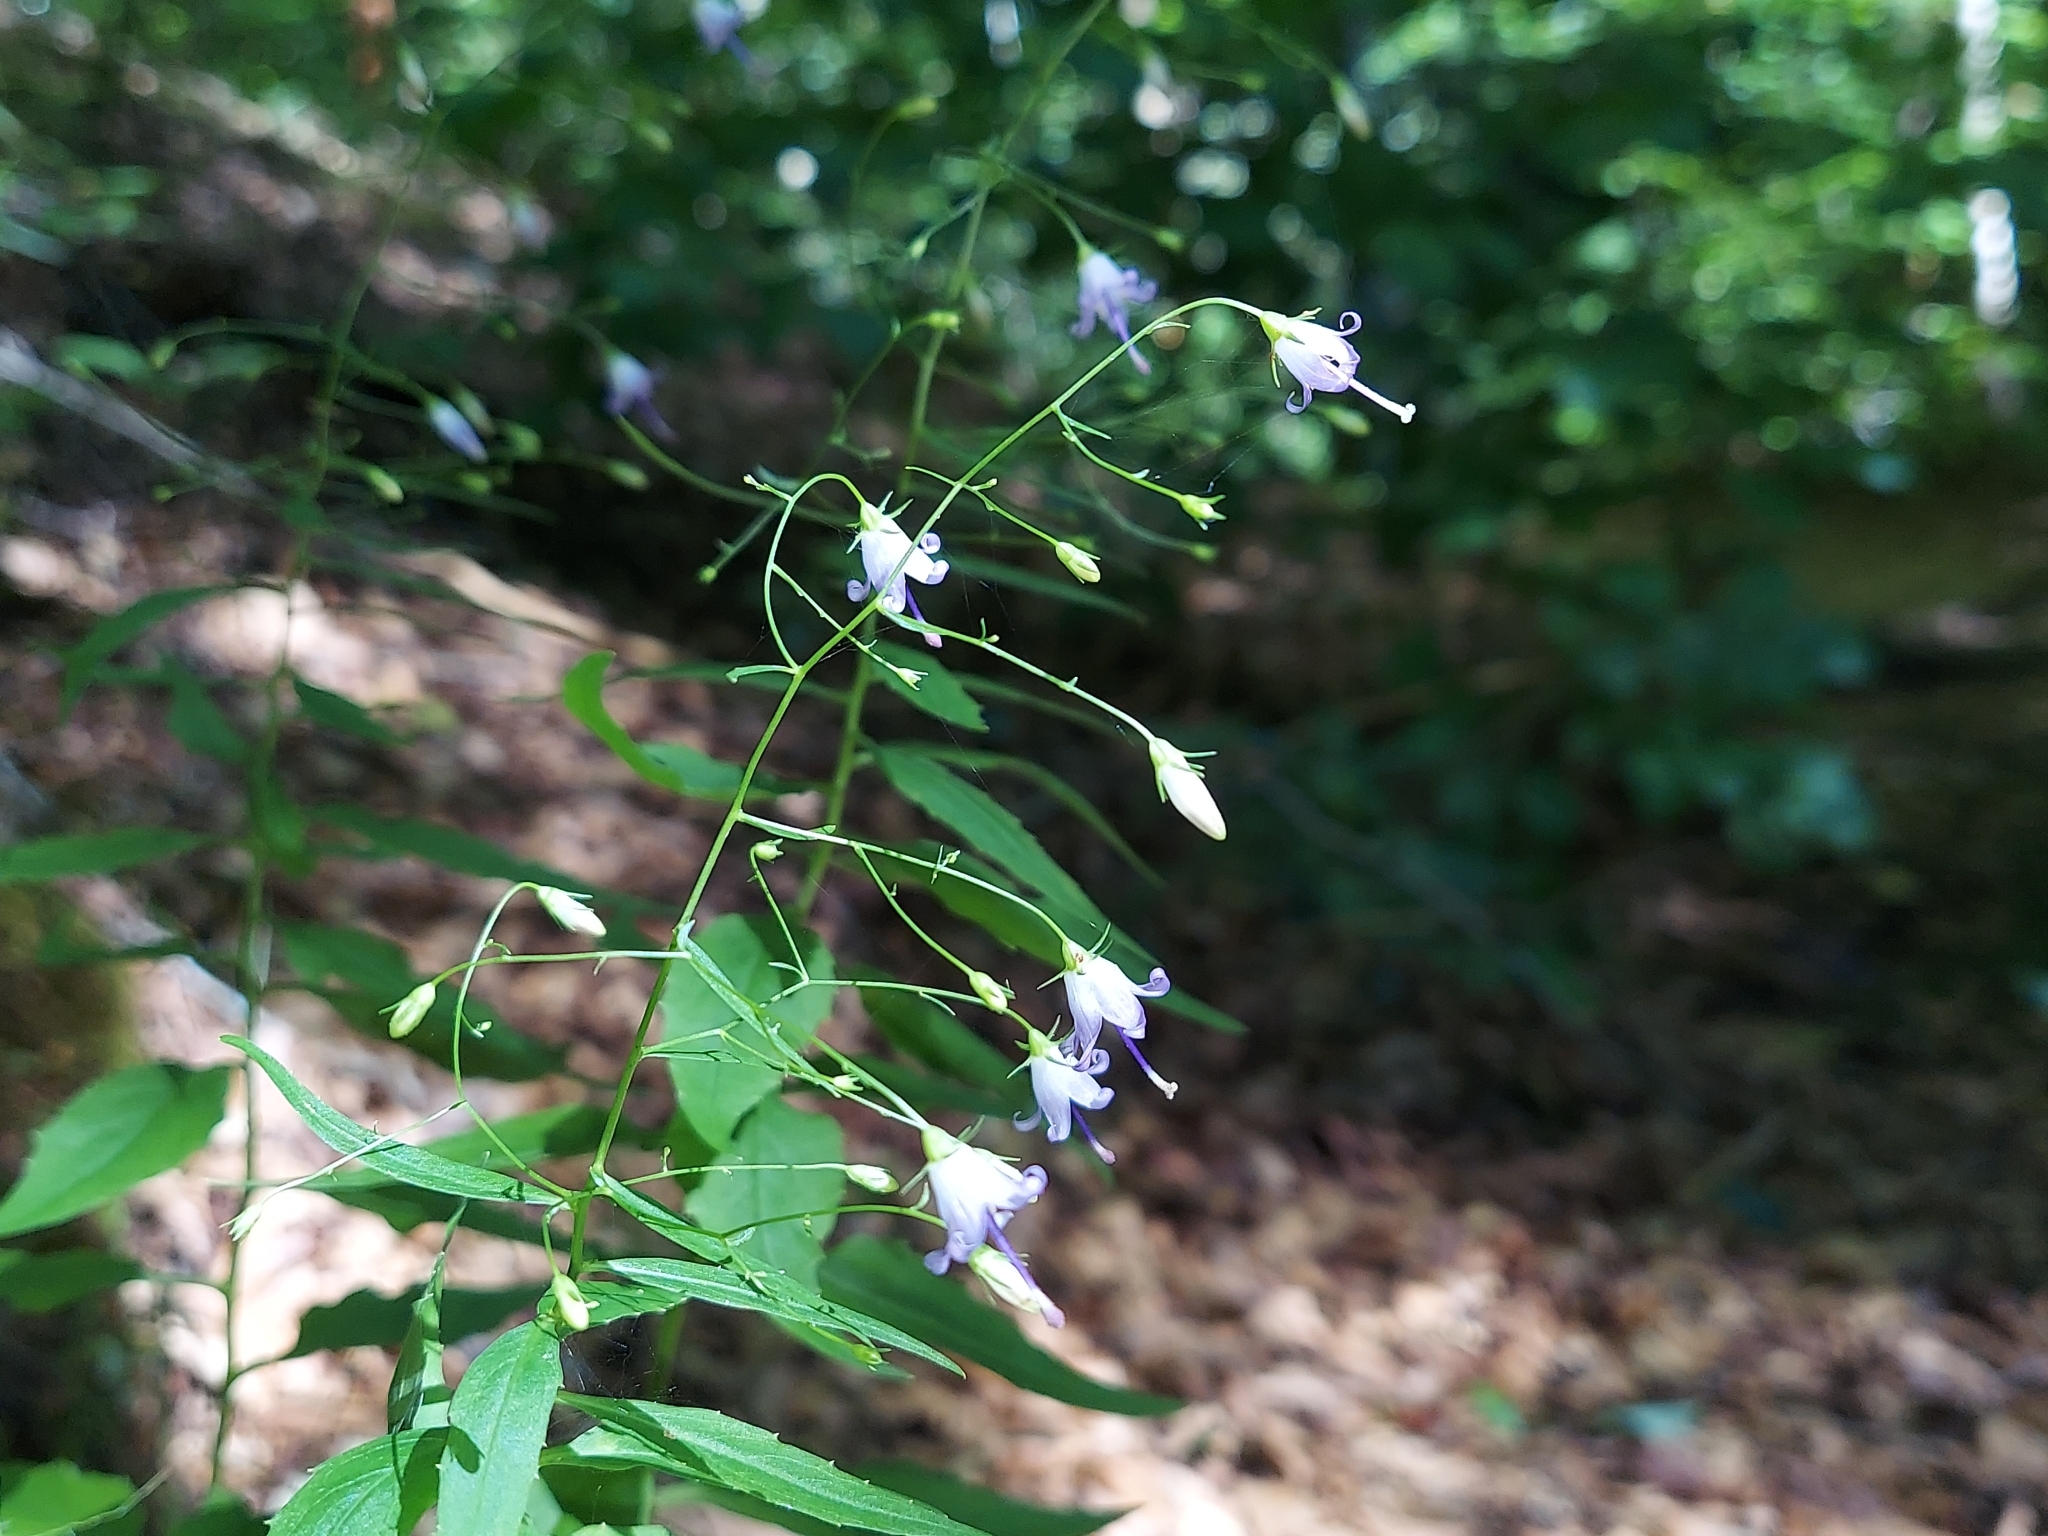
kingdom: Plantae
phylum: Tracheophyta
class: Magnoliopsida
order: Asterales
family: Campanulaceae
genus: Campanula
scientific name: Campanula divaricata
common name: Appalachian bellflower
